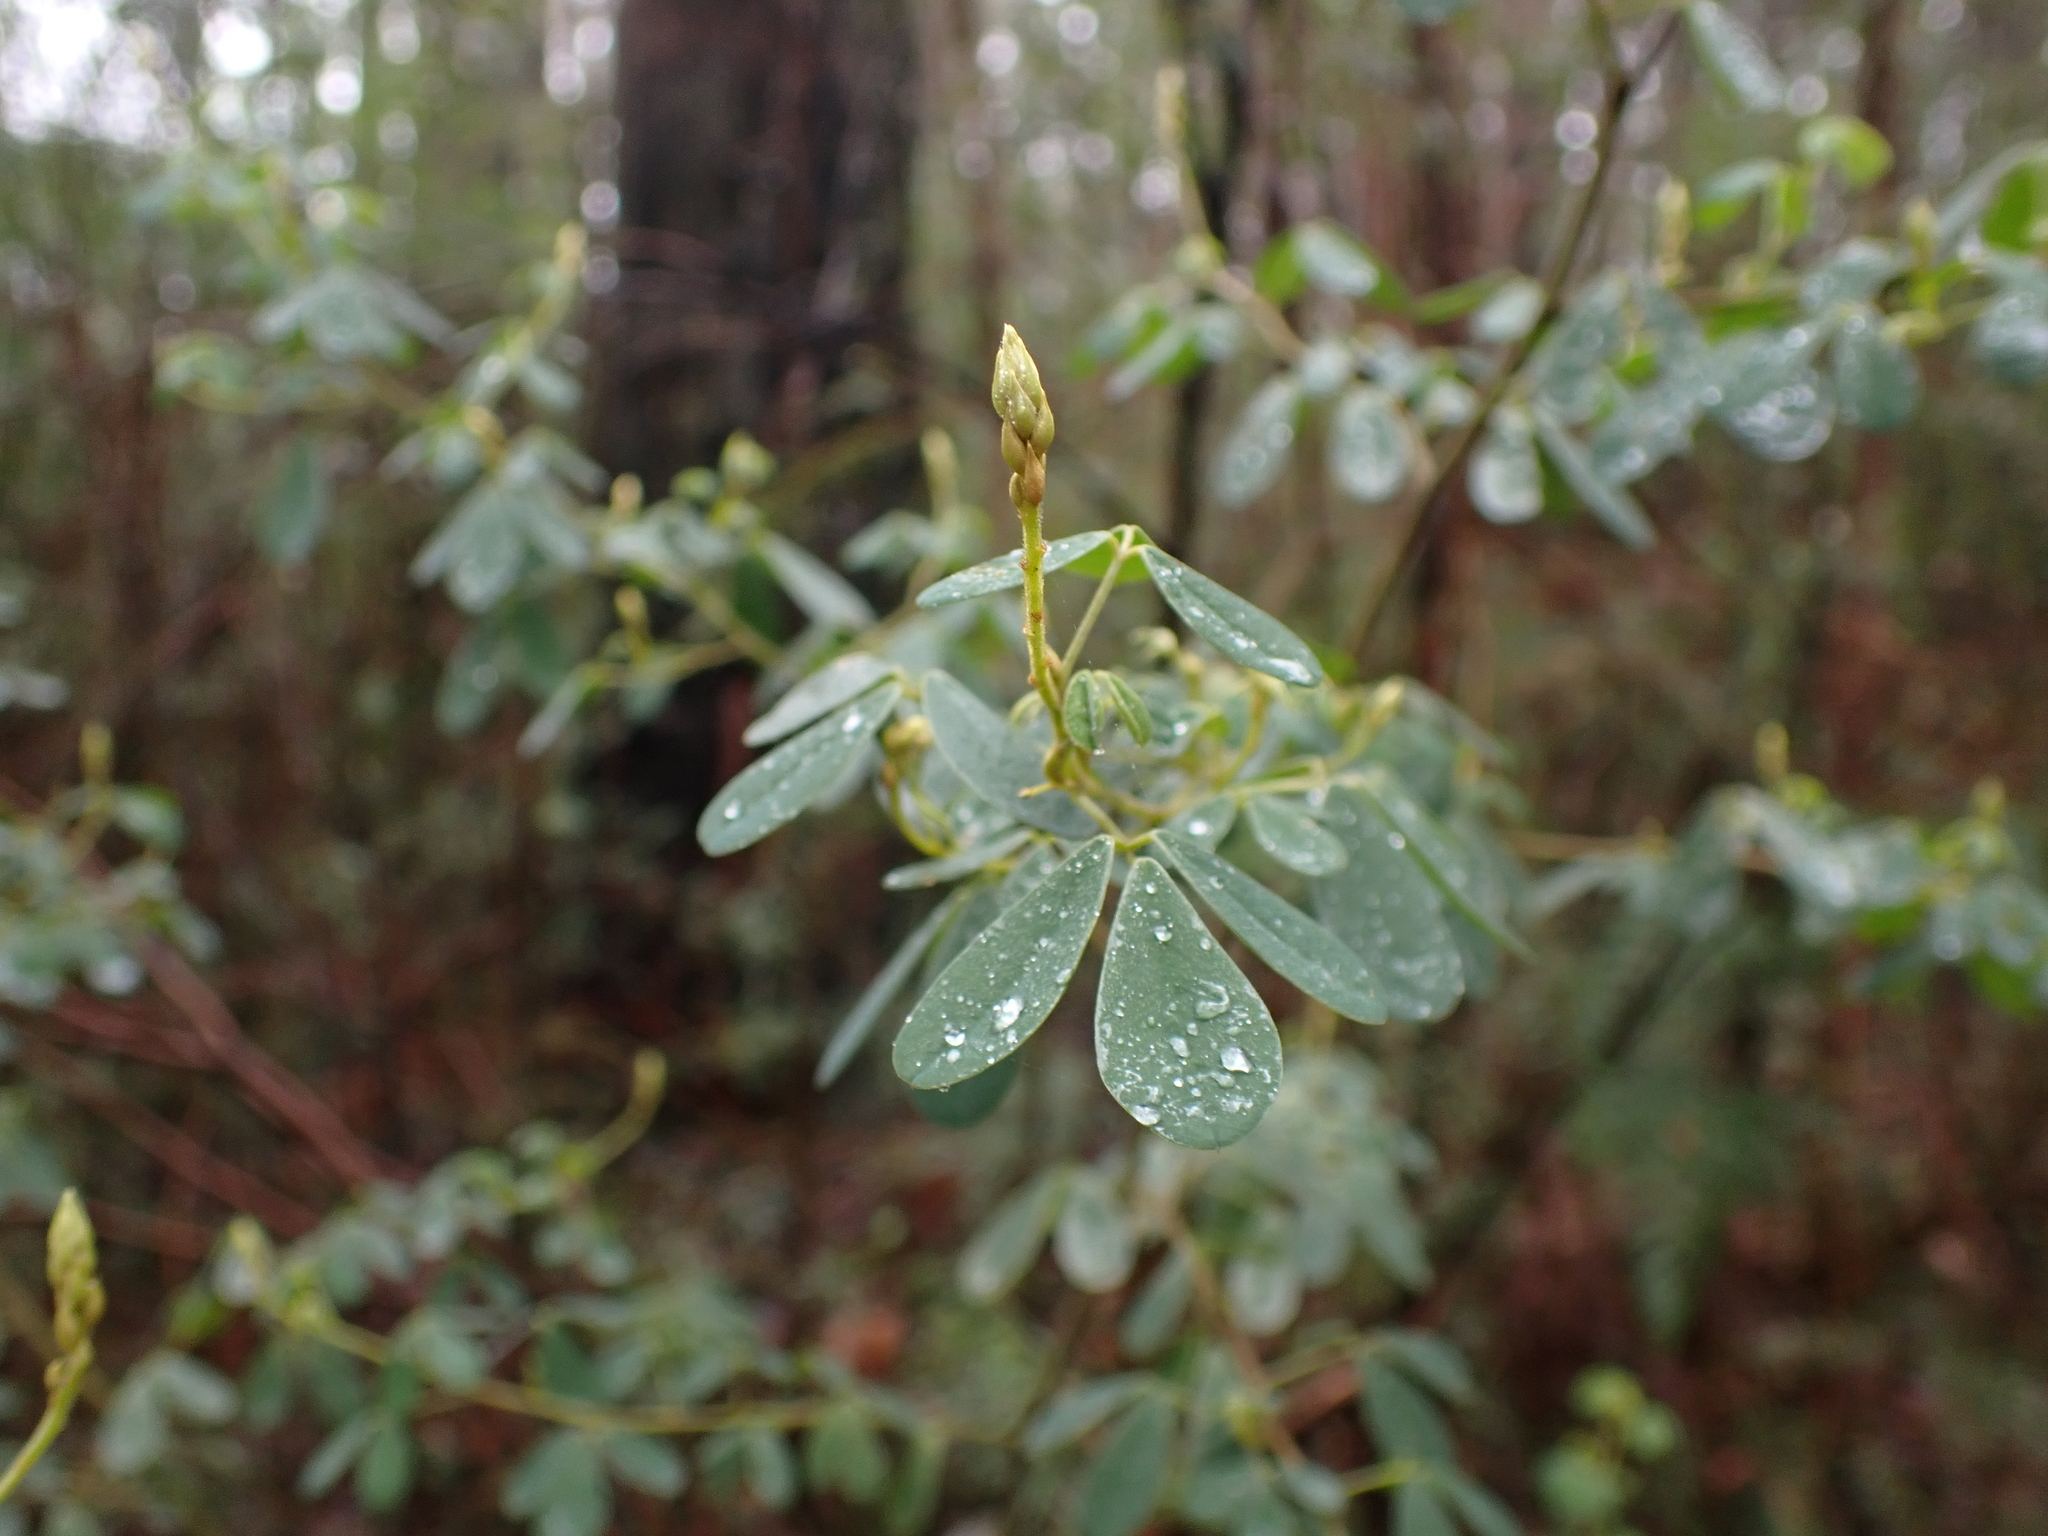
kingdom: Plantae
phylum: Tracheophyta
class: Magnoliopsida
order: Fabales
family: Fabaceae
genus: Goodia
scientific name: Goodia pubescens
